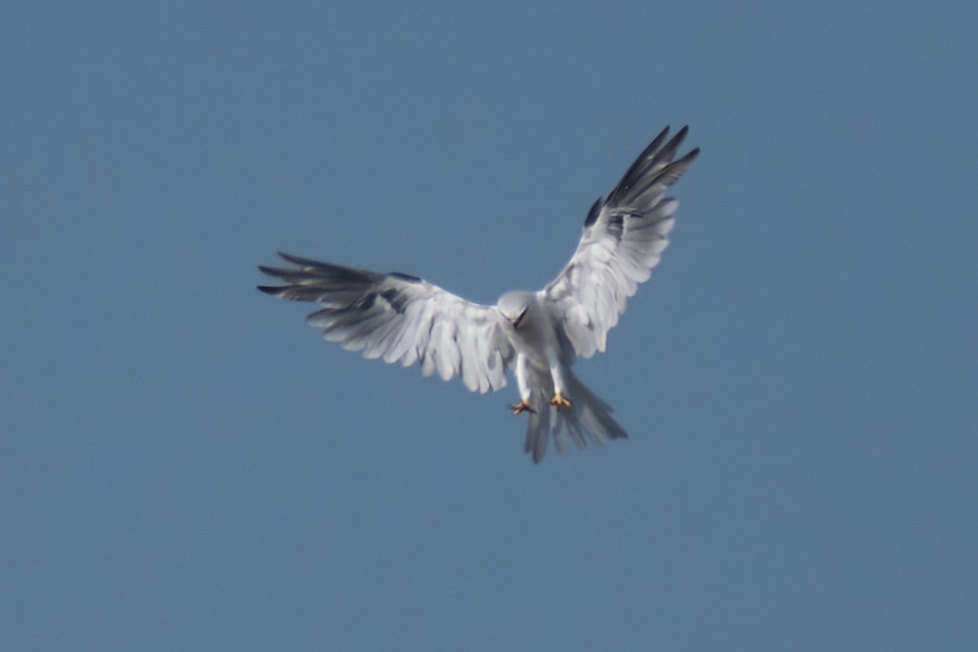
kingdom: Animalia
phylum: Chordata
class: Aves
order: Accipitriformes
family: Accipitridae
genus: Elanus
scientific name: Elanus leucurus
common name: White-tailed kite
